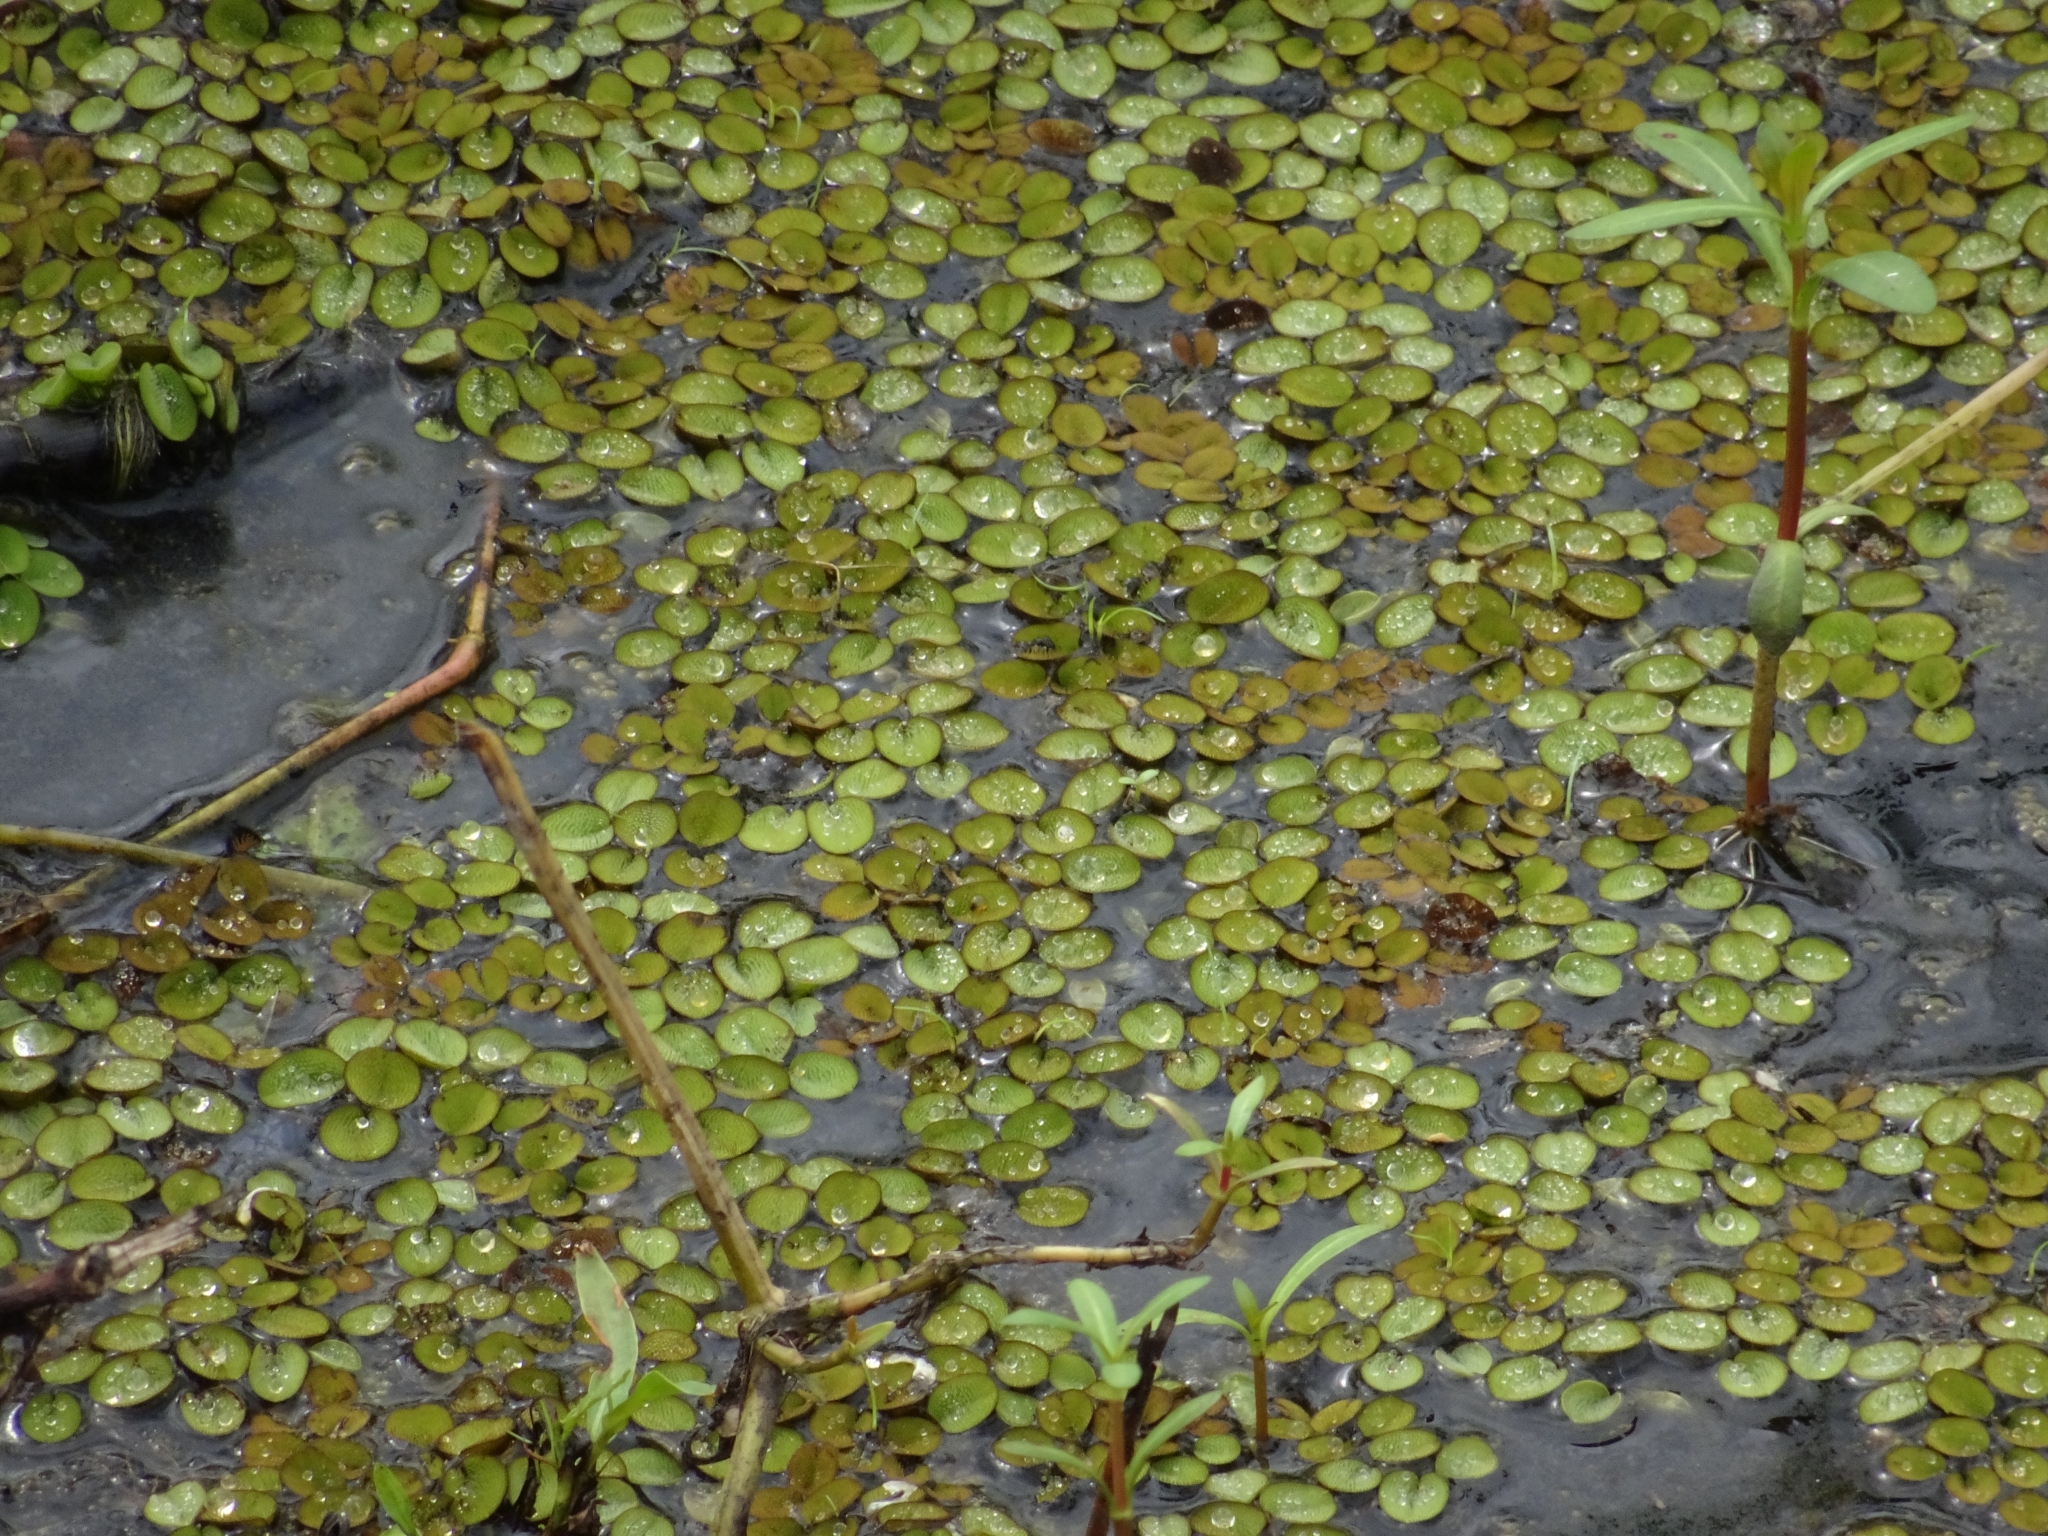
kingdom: Plantae
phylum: Tracheophyta
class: Polypodiopsida
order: Salviniales
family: Salviniaceae
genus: Salvinia
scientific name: Salvinia minima
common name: Water spangles
